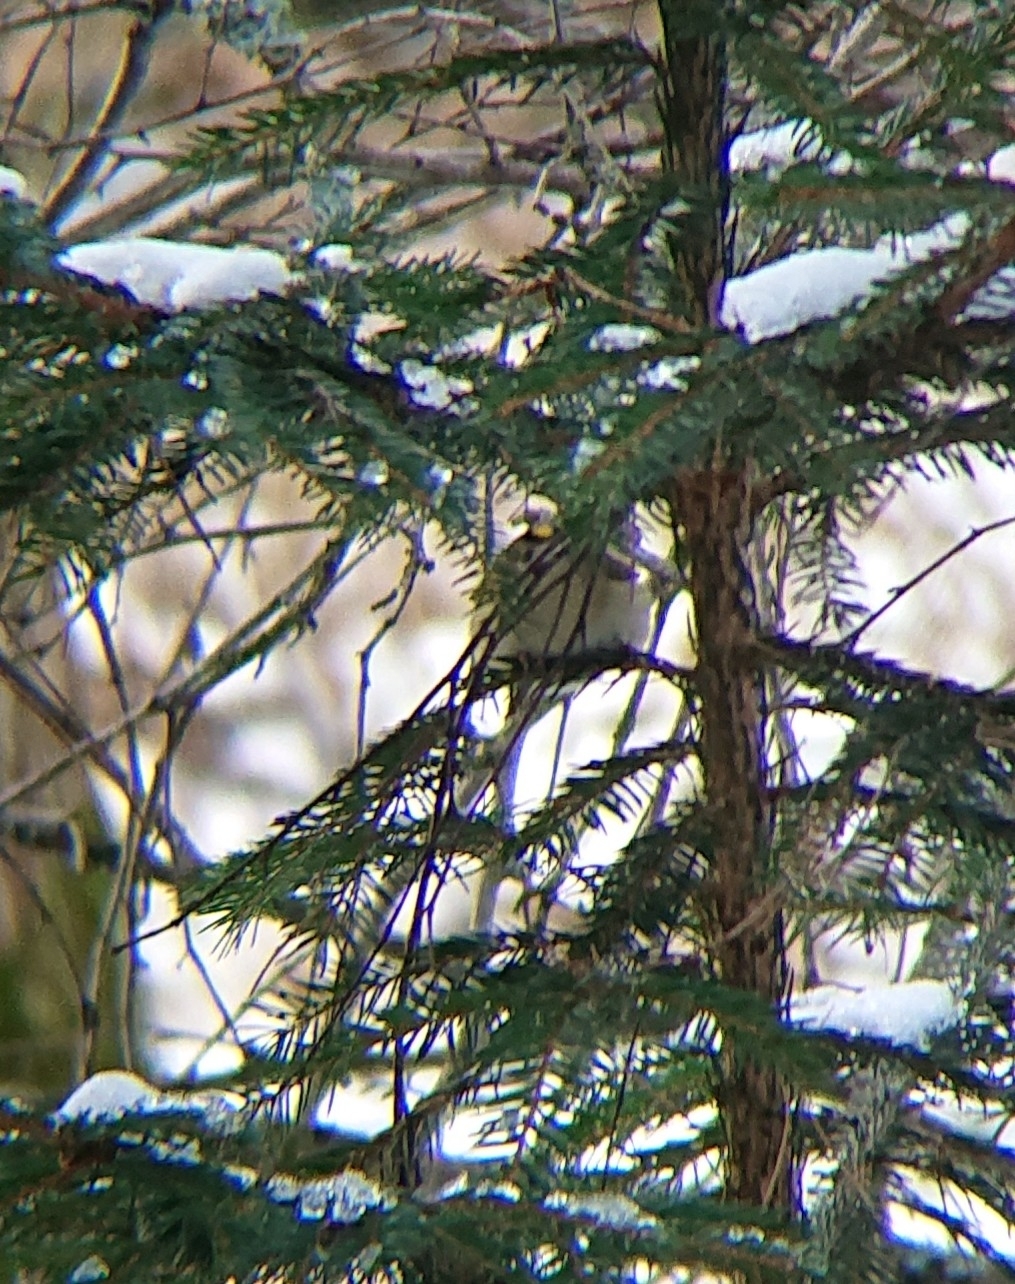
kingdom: Animalia
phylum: Chordata
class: Aves
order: Passeriformes
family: Regulidae
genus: Regulus
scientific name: Regulus regulus
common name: Goldcrest
